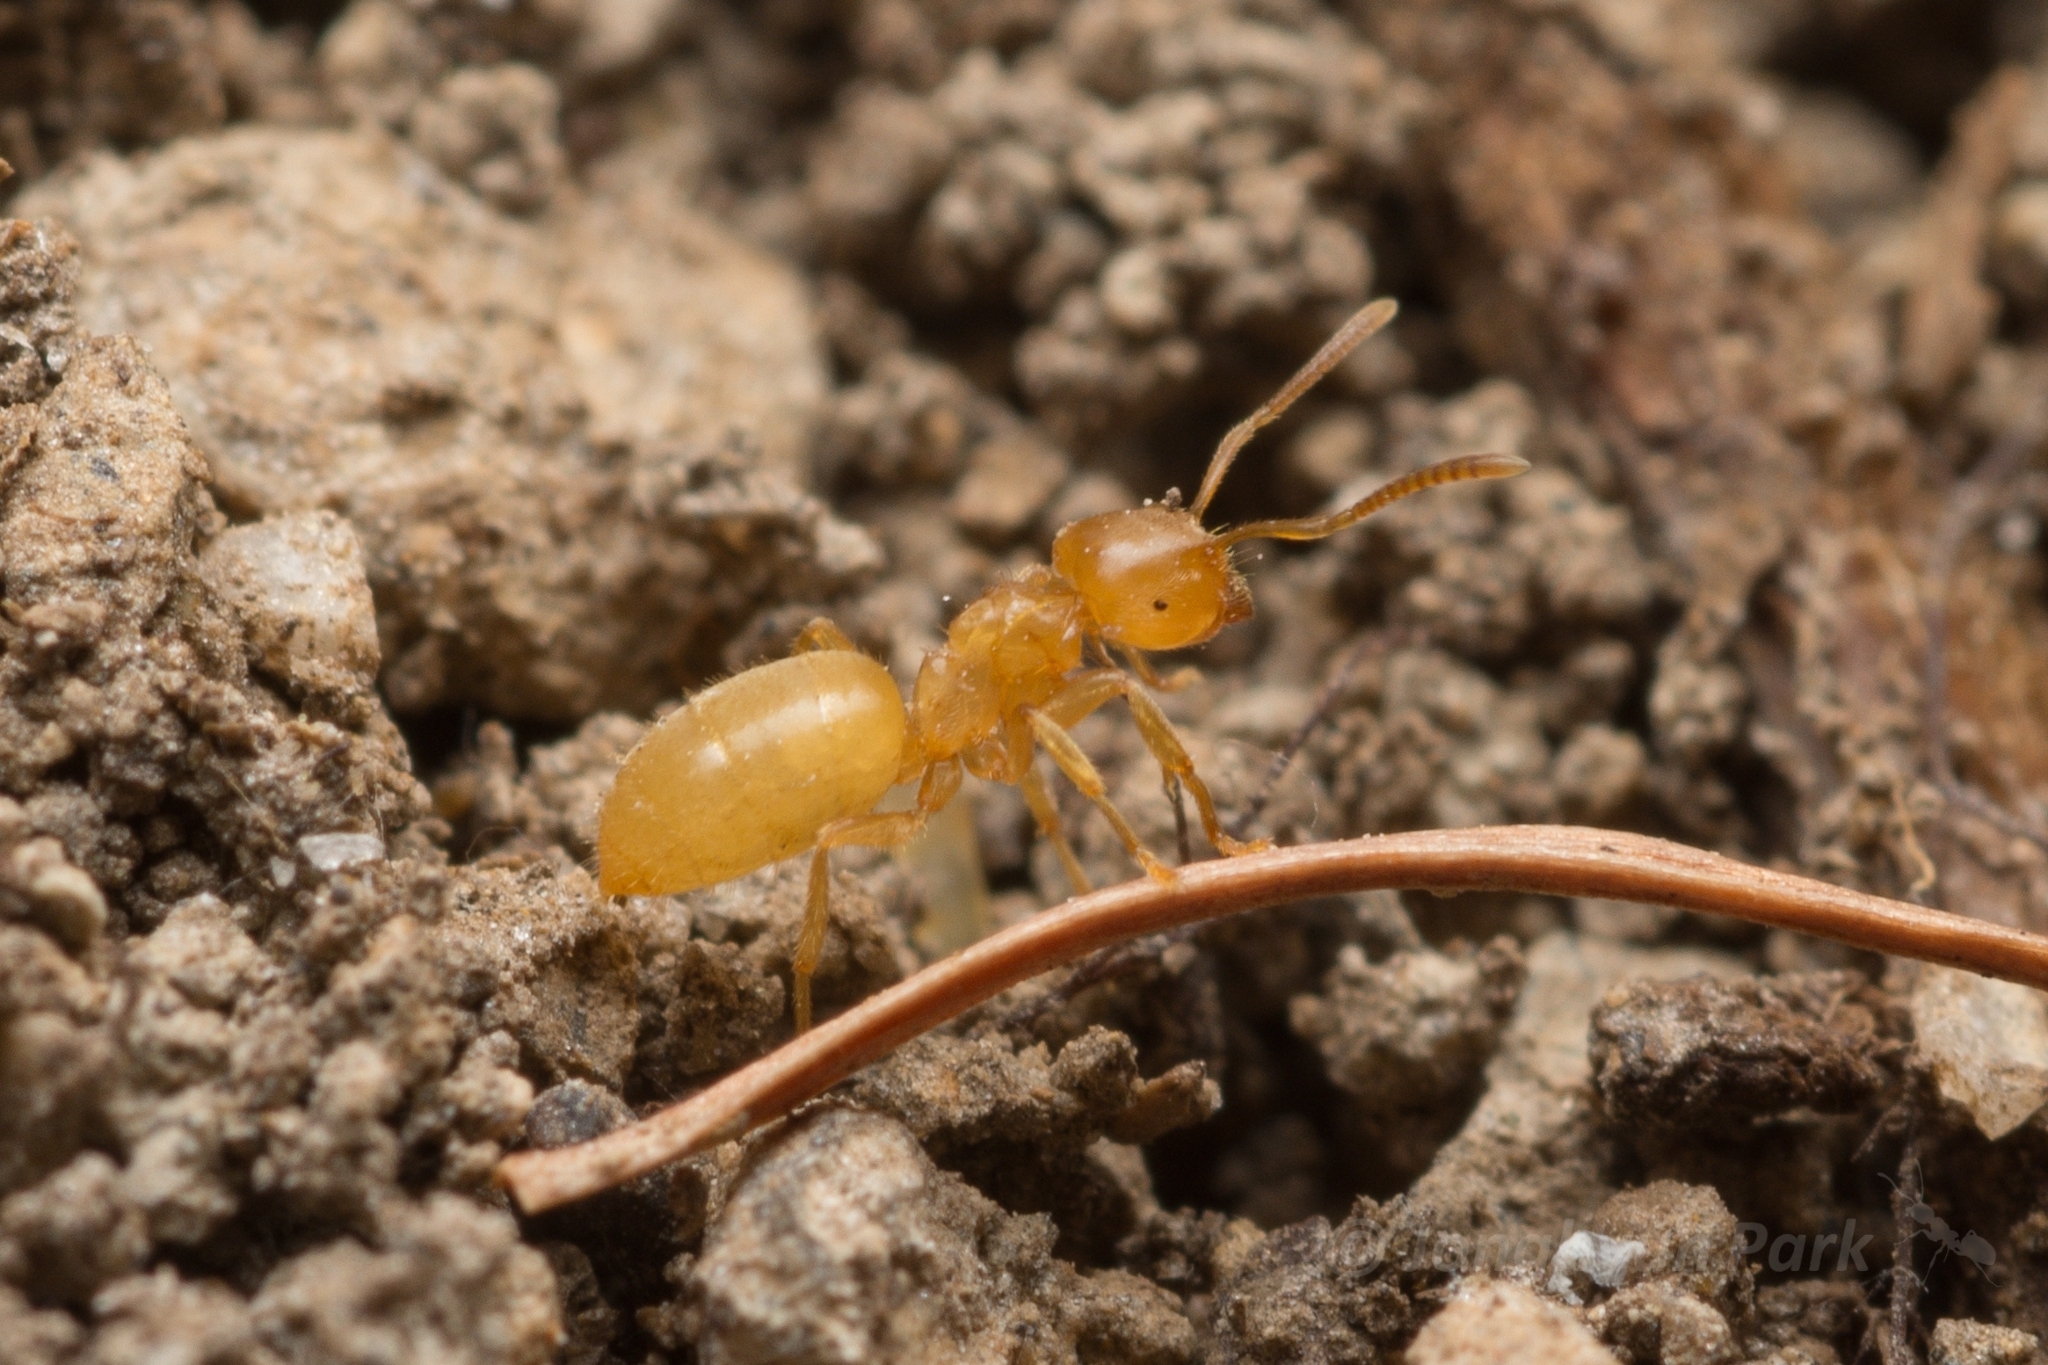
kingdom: Animalia
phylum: Arthropoda
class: Insecta
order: Hymenoptera
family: Formicidae
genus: Lasius
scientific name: Lasius talpa
